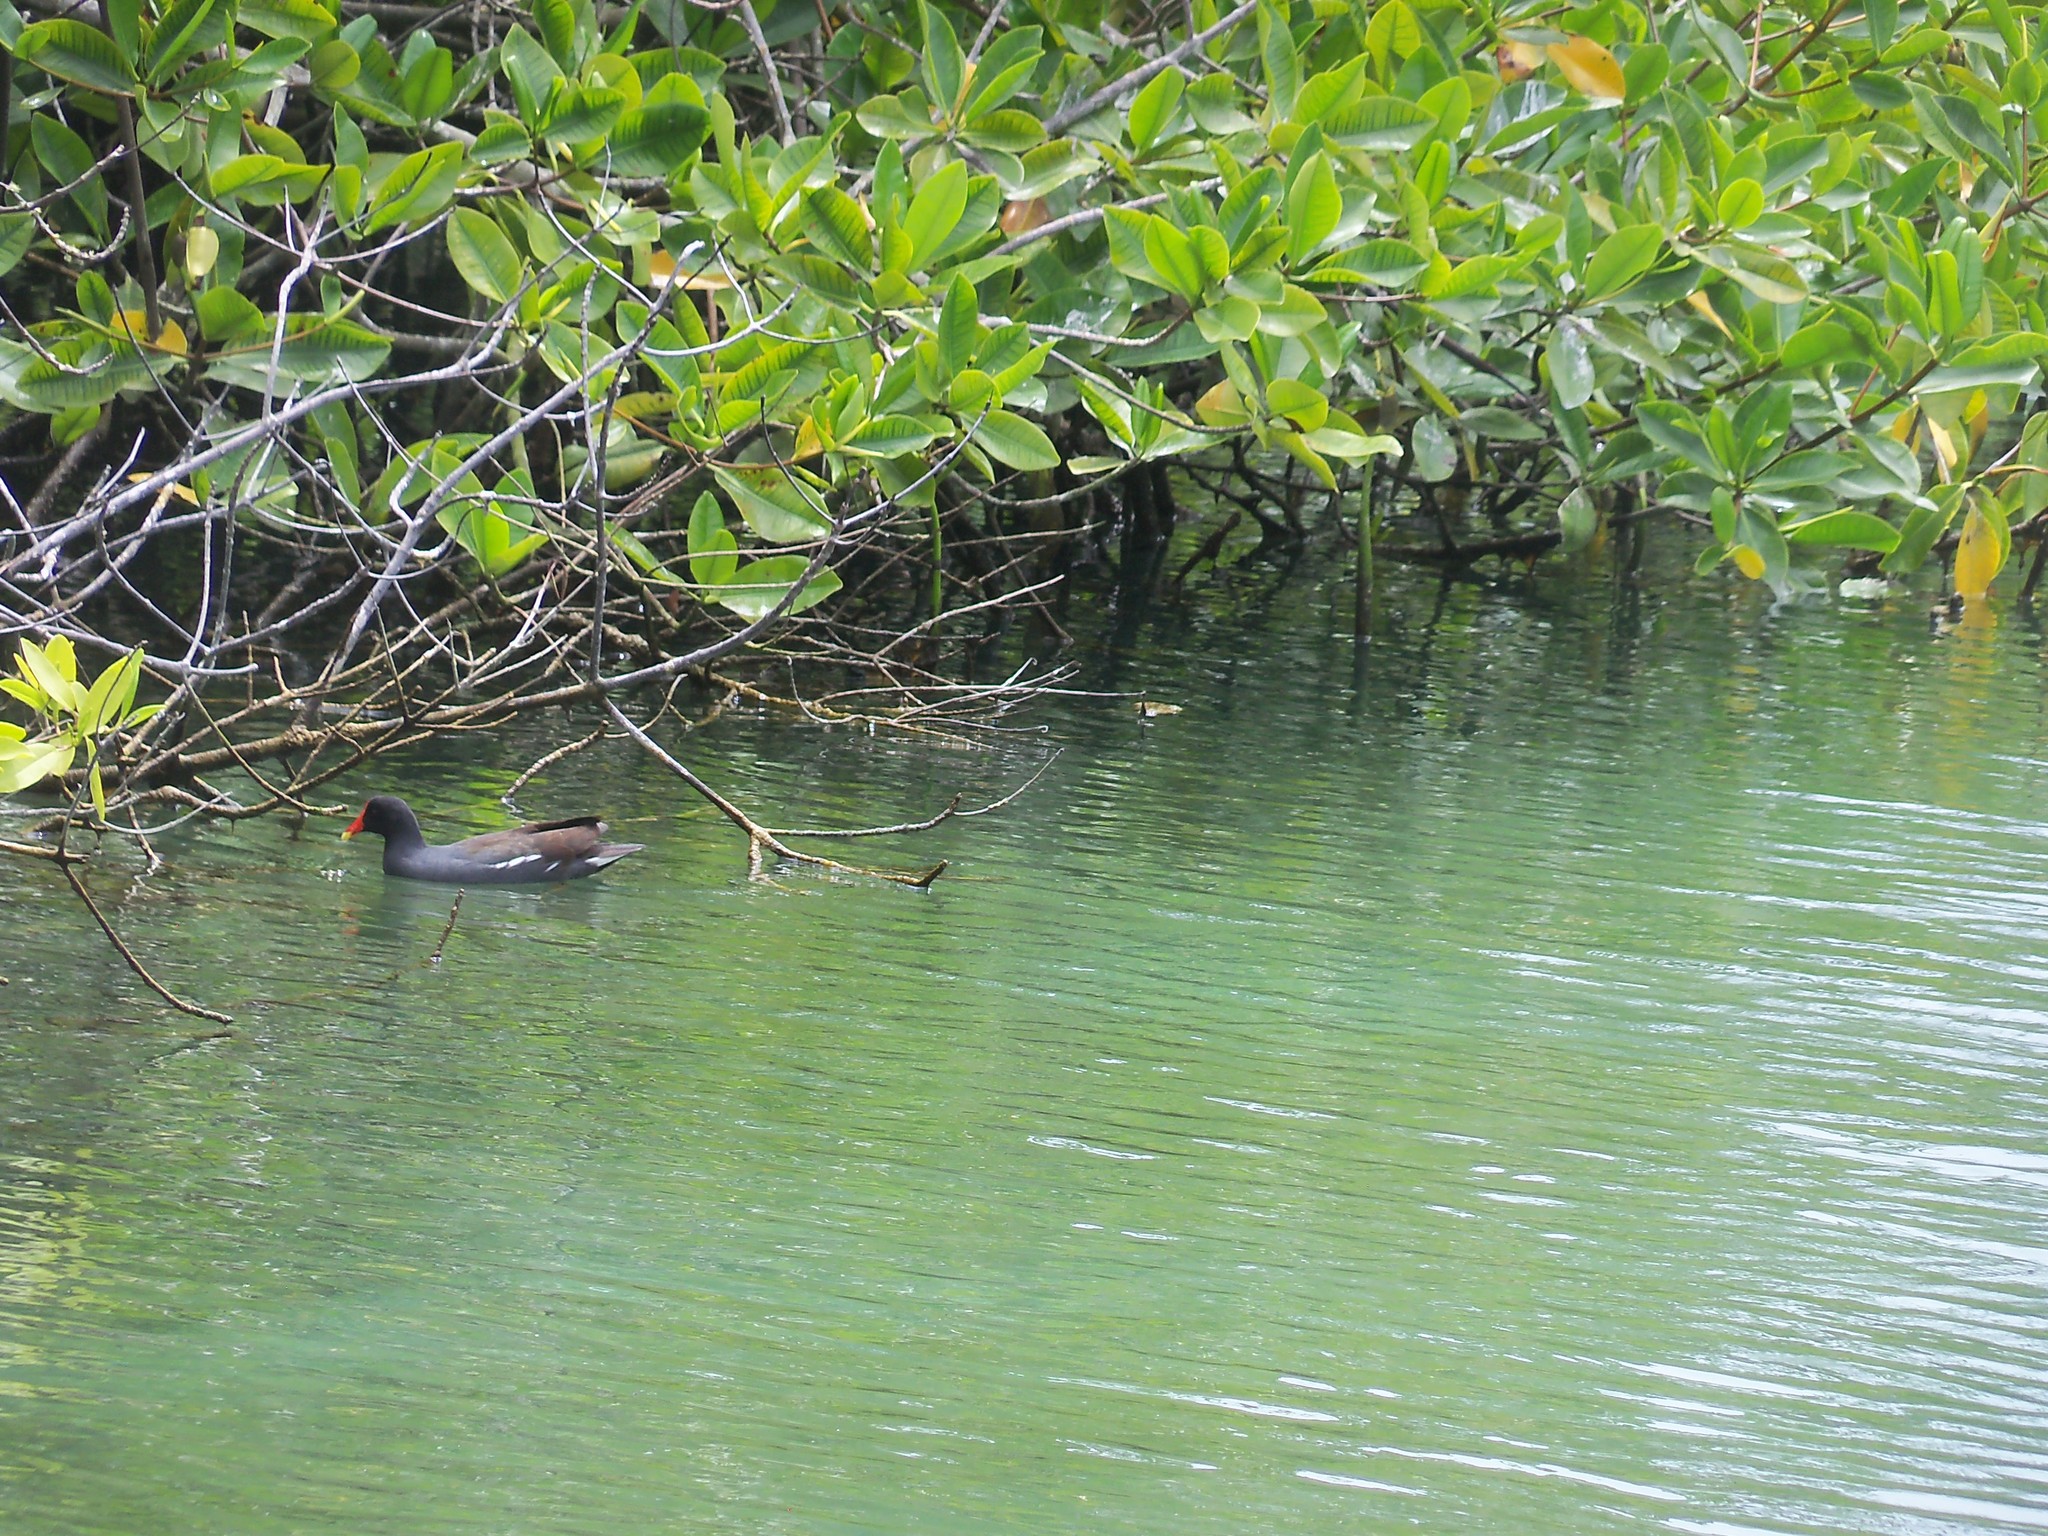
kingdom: Animalia
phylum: Chordata
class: Aves
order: Gruiformes
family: Rallidae
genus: Gallinula
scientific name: Gallinula chloropus
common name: Common moorhen
